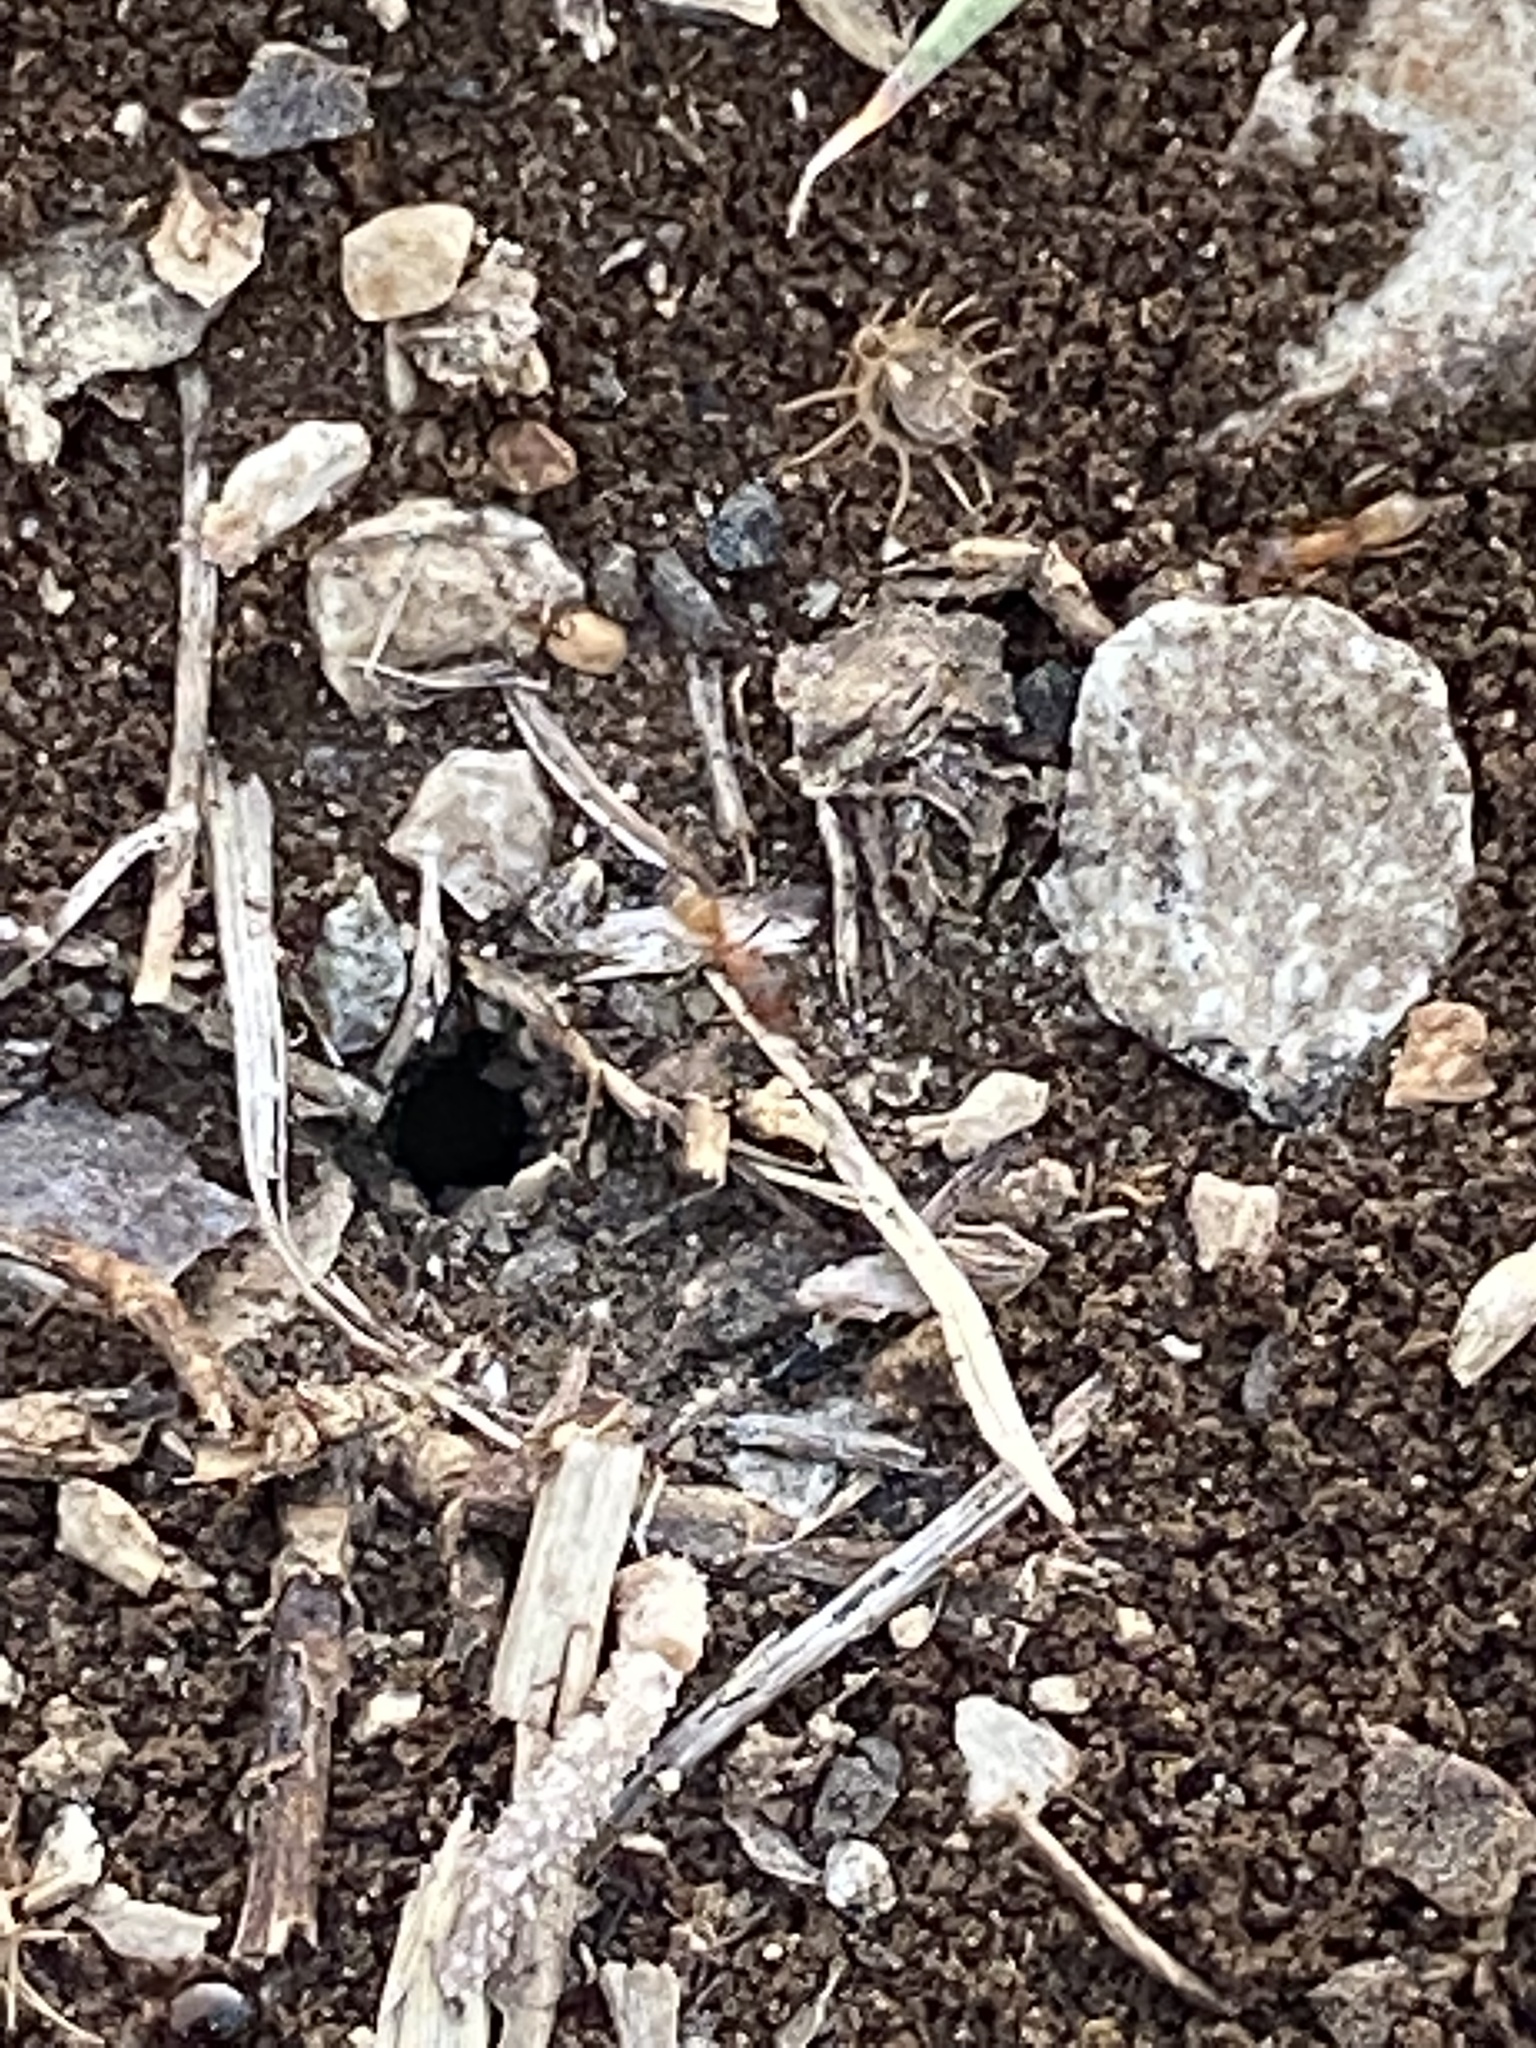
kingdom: Animalia
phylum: Arthropoda
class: Insecta
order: Hymenoptera
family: Formicidae
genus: Dorymyrmex
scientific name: Dorymyrmex flavus
